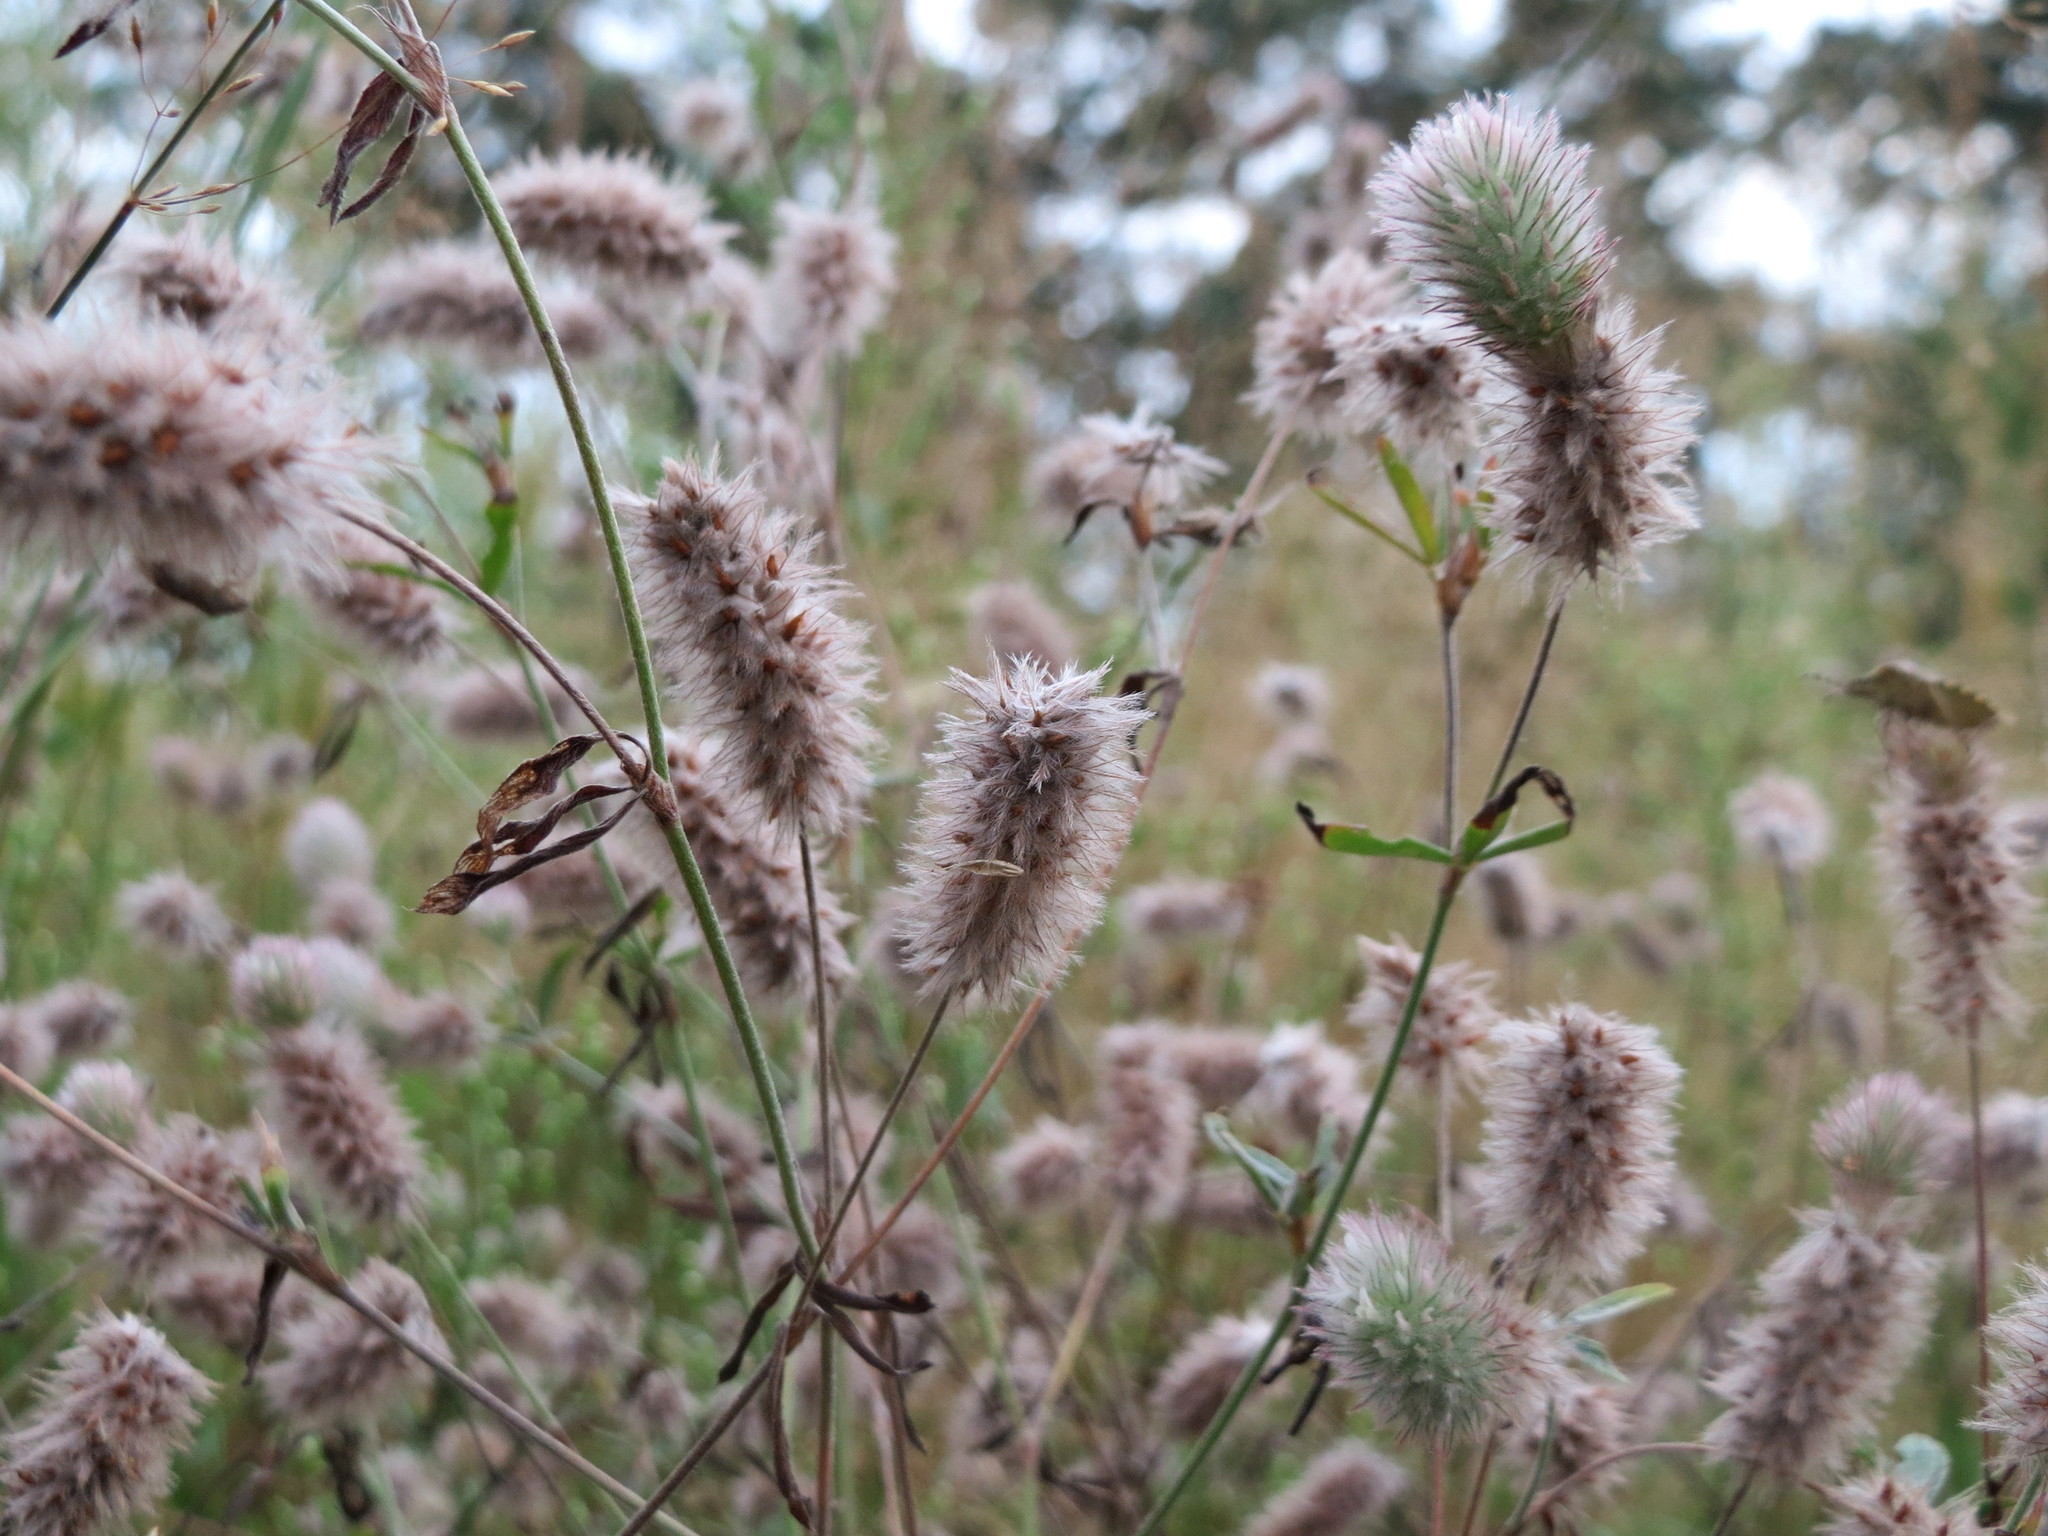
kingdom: Plantae
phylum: Tracheophyta
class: Magnoliopsida
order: Fabales
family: Fabaceae
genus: Trifolium
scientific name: Trifolium arvense
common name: Hare's-foot clover
